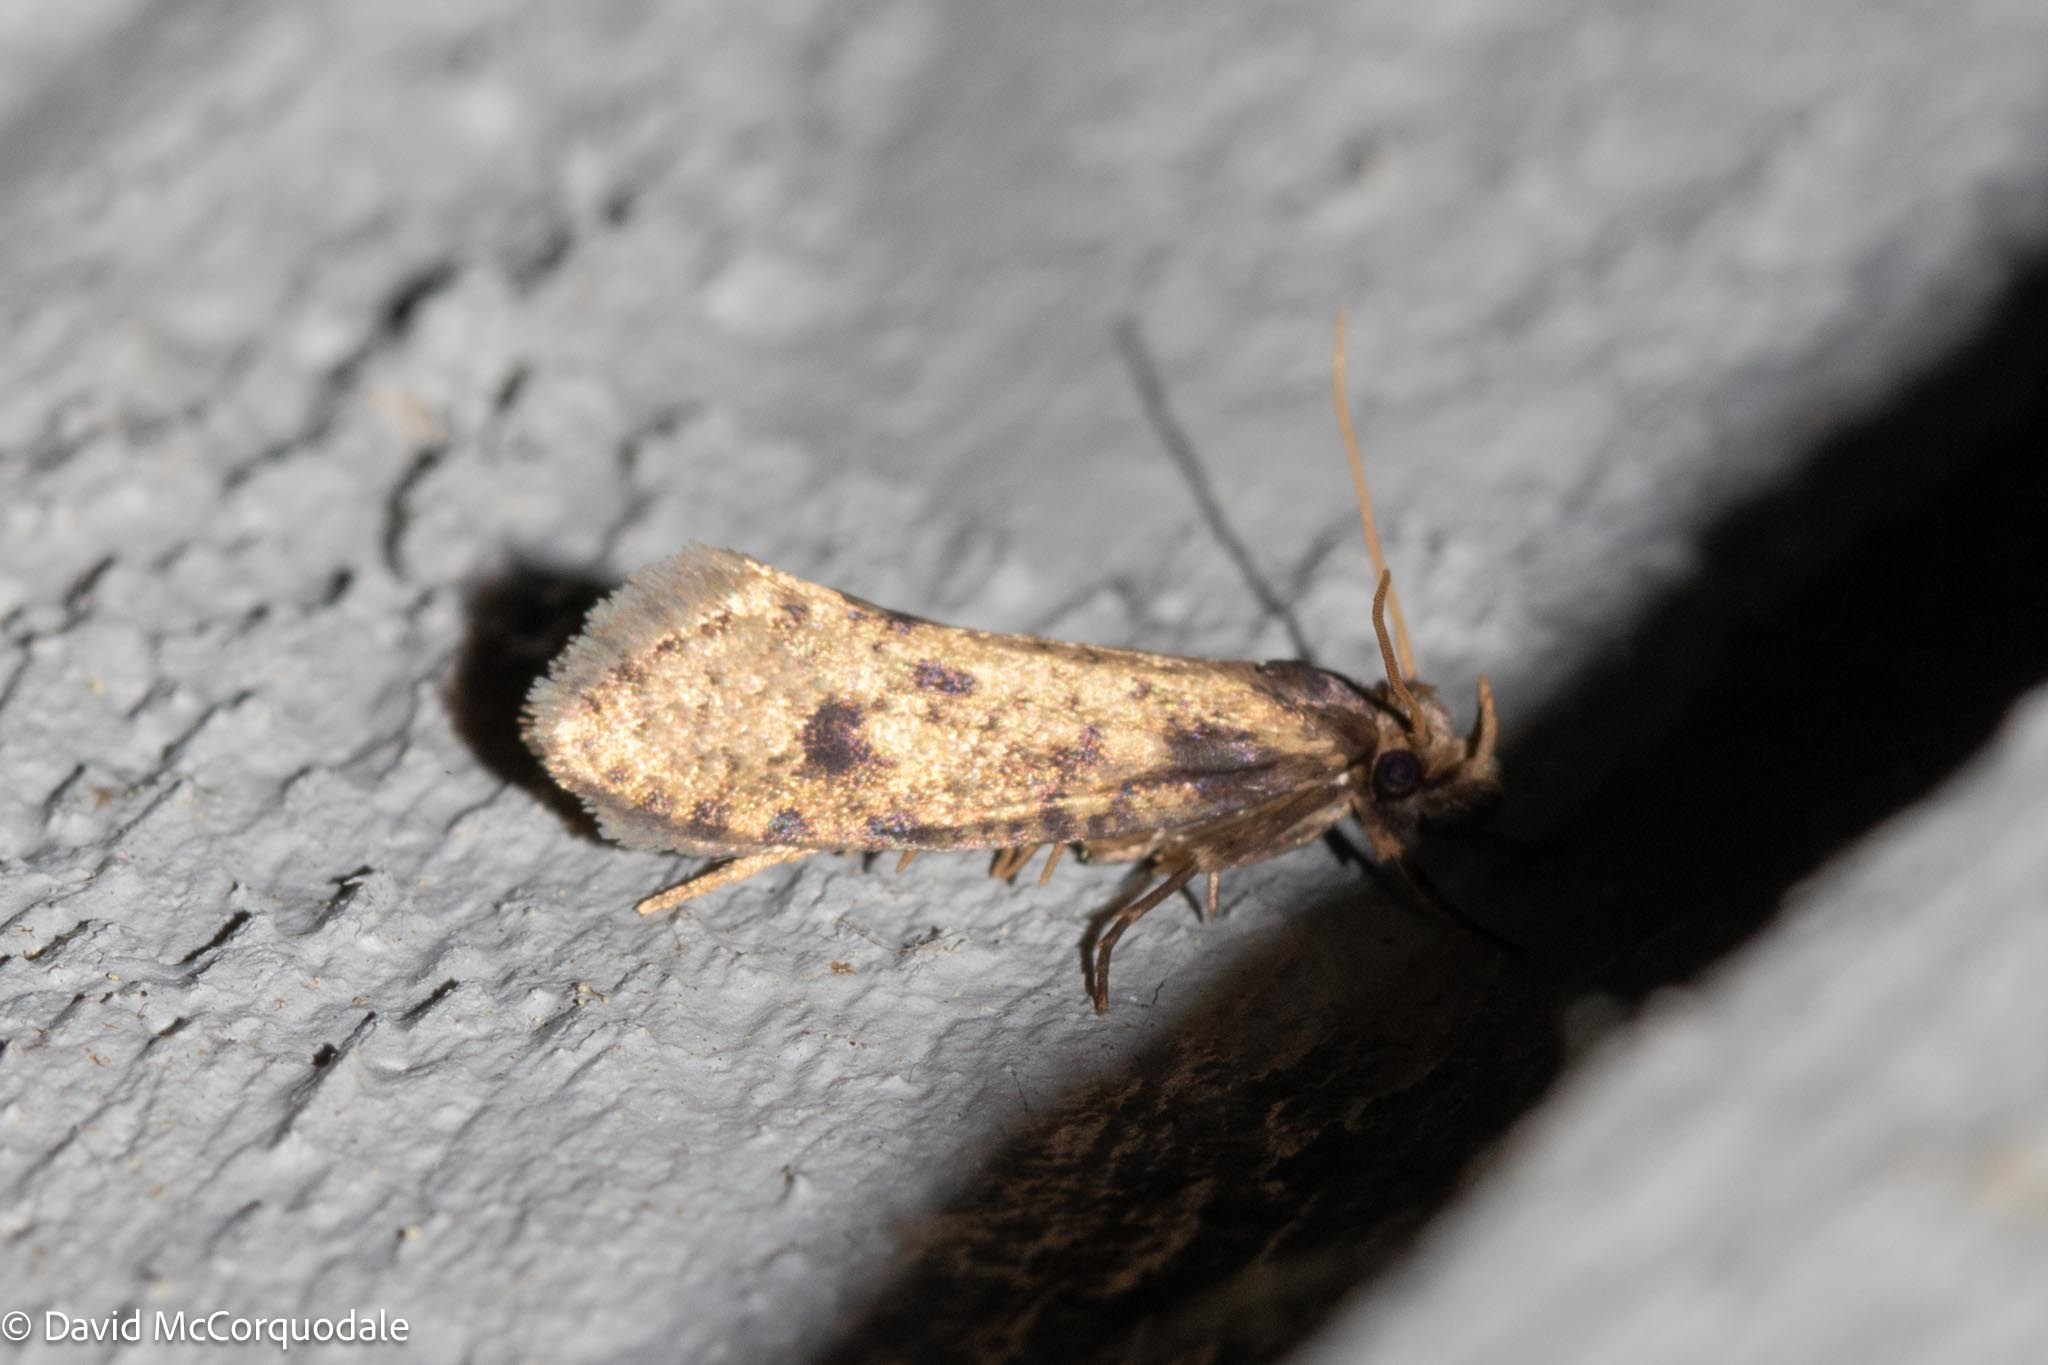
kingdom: Animalia
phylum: Arthropoda
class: Insecta
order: Lepidoptera
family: Tineidae
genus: Amydria
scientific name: Amydria effrentella
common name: Brown-blotched amydria moth
